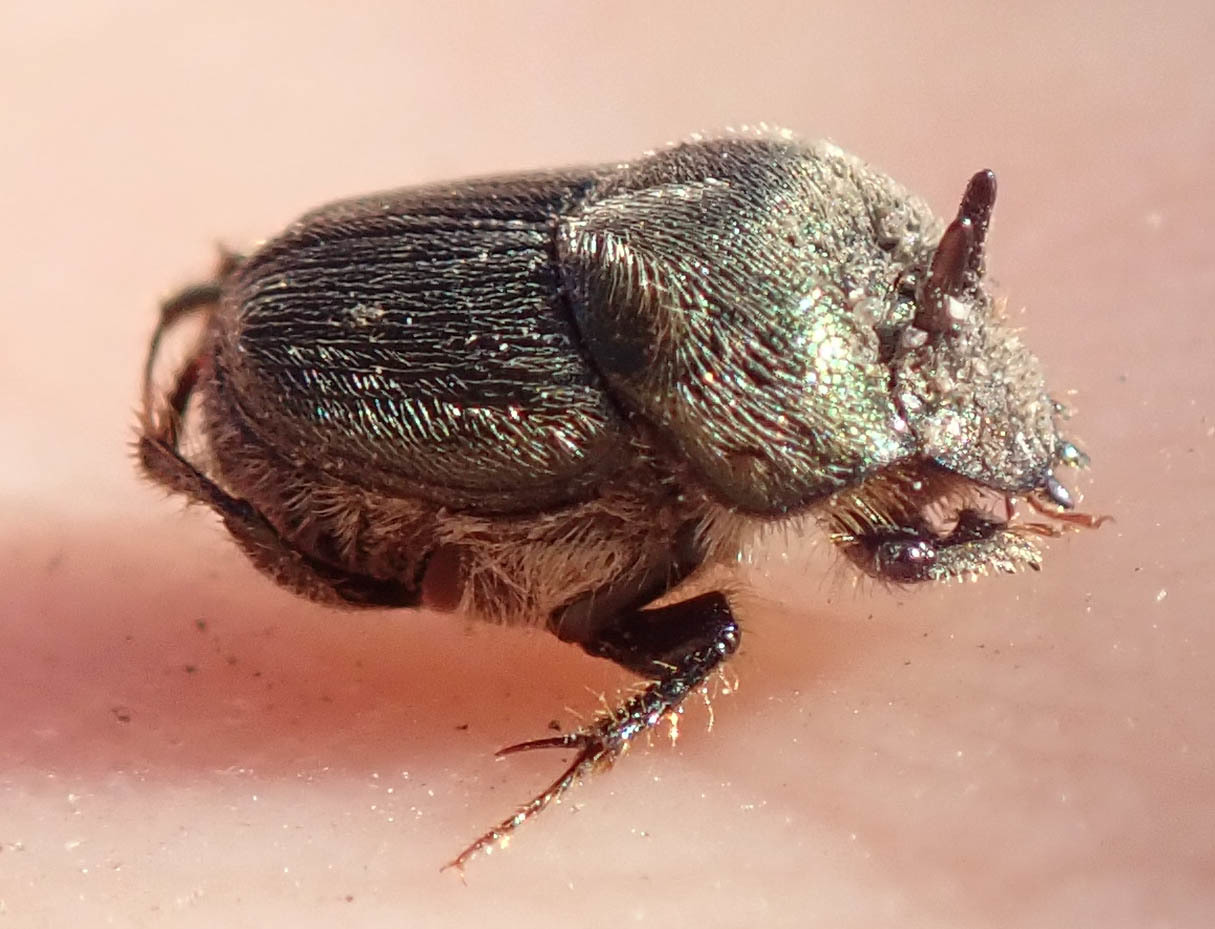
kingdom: Animalia
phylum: Arthropoda
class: Insecta
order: Coleoptera
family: Scarabaeidae
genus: Onthophagus
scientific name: Onthophagus aeruginosus
